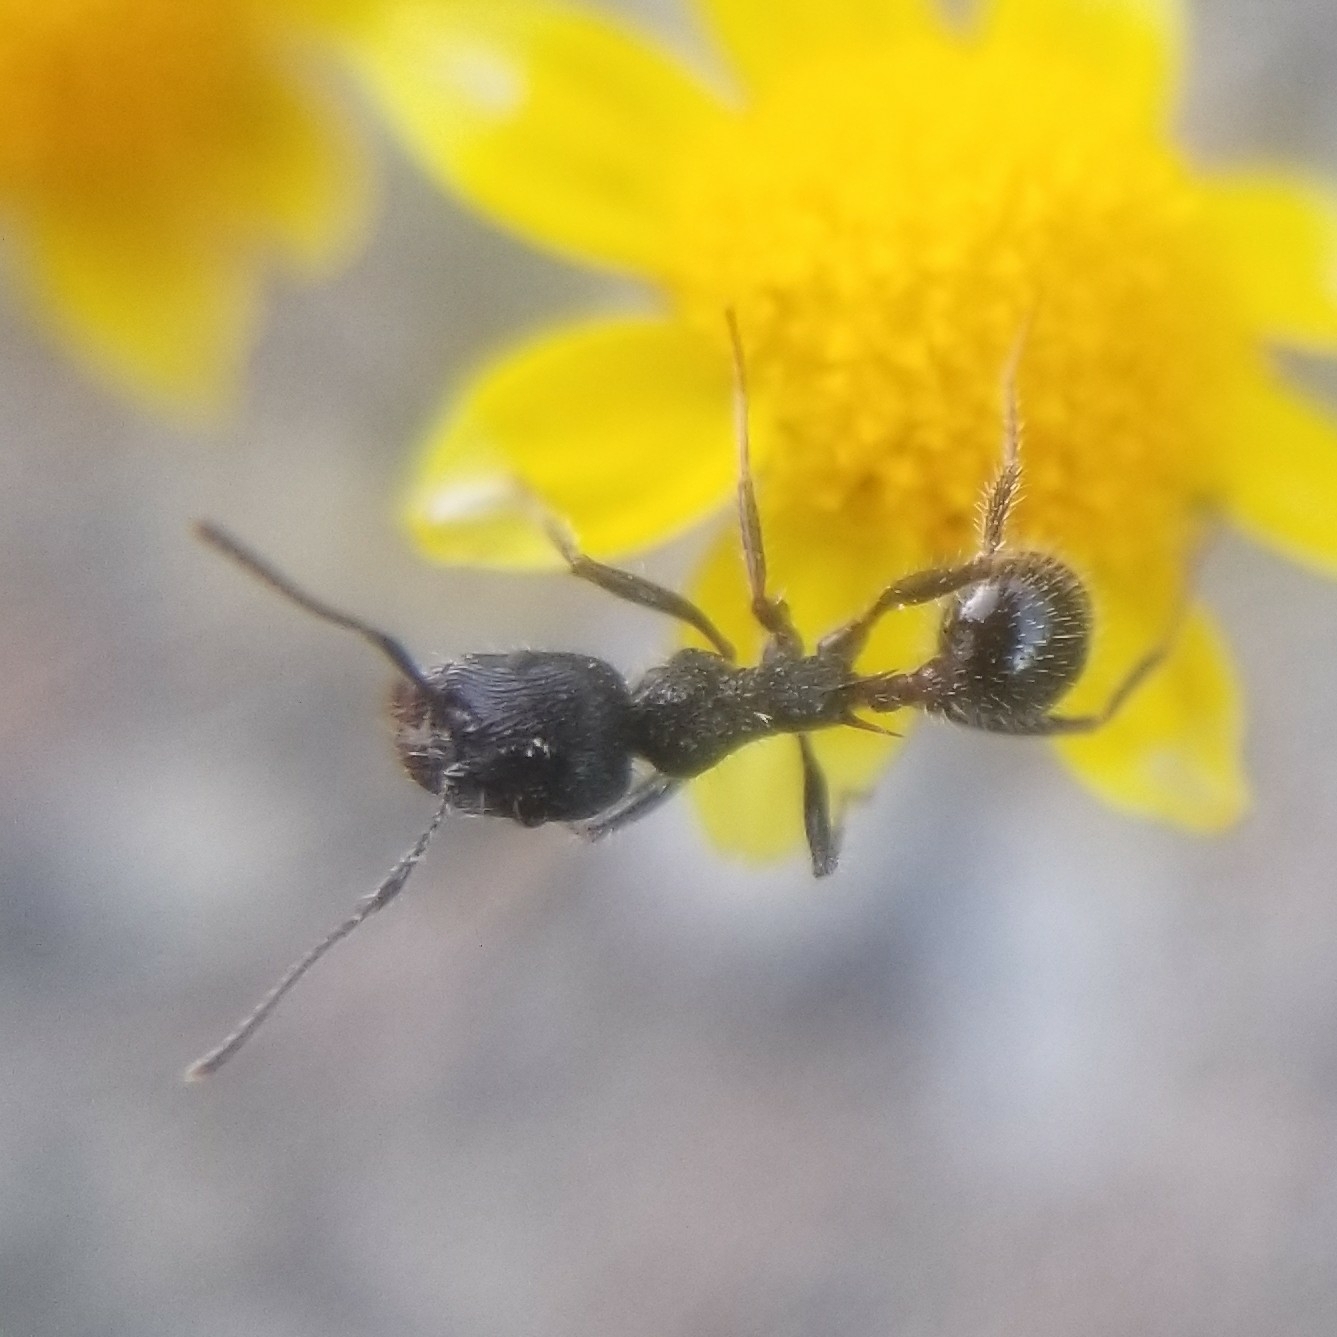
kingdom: Animalia
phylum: Arthropoda
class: Insecta
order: Hymenoptera
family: Formicidae
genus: Veromessor
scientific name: Veromessor andrei
